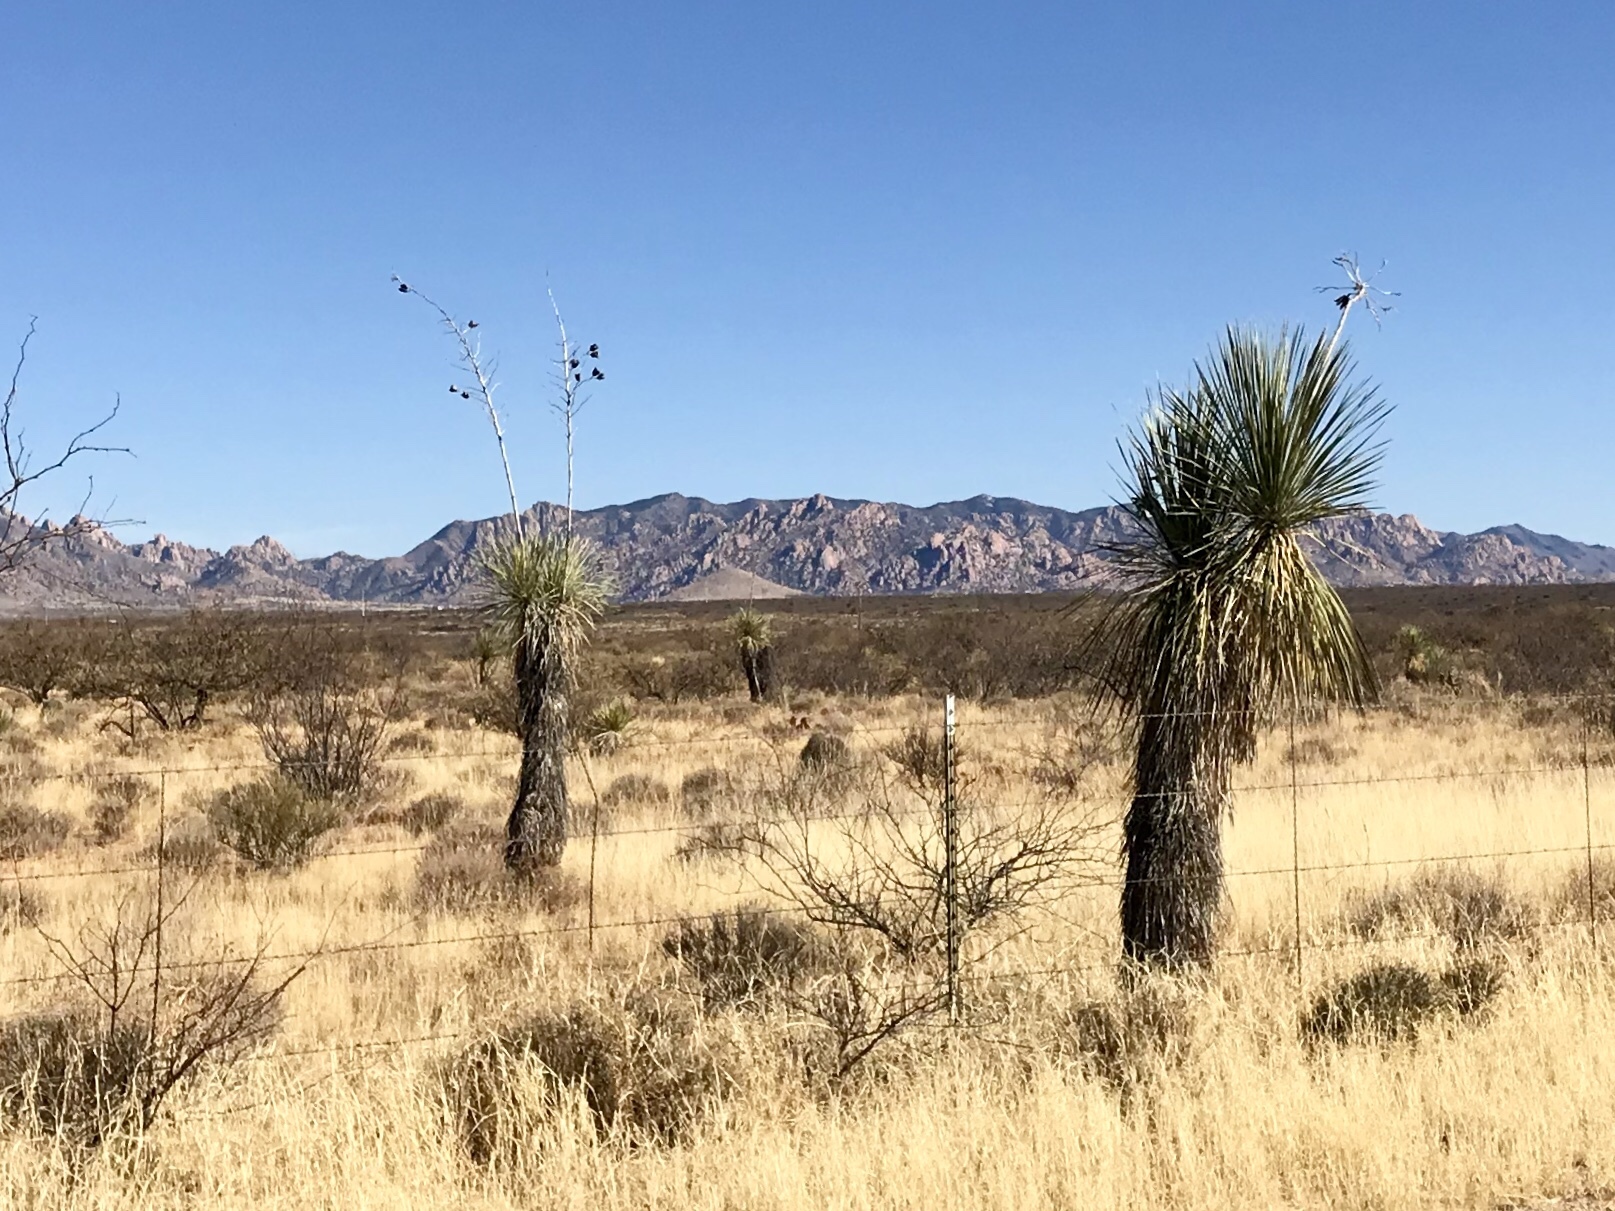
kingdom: Plantae
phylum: Tracheophyta
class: Liliopsida
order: Asparagales
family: Asparagaceae
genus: Yucca
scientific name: Yucca elata
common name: Palmella
